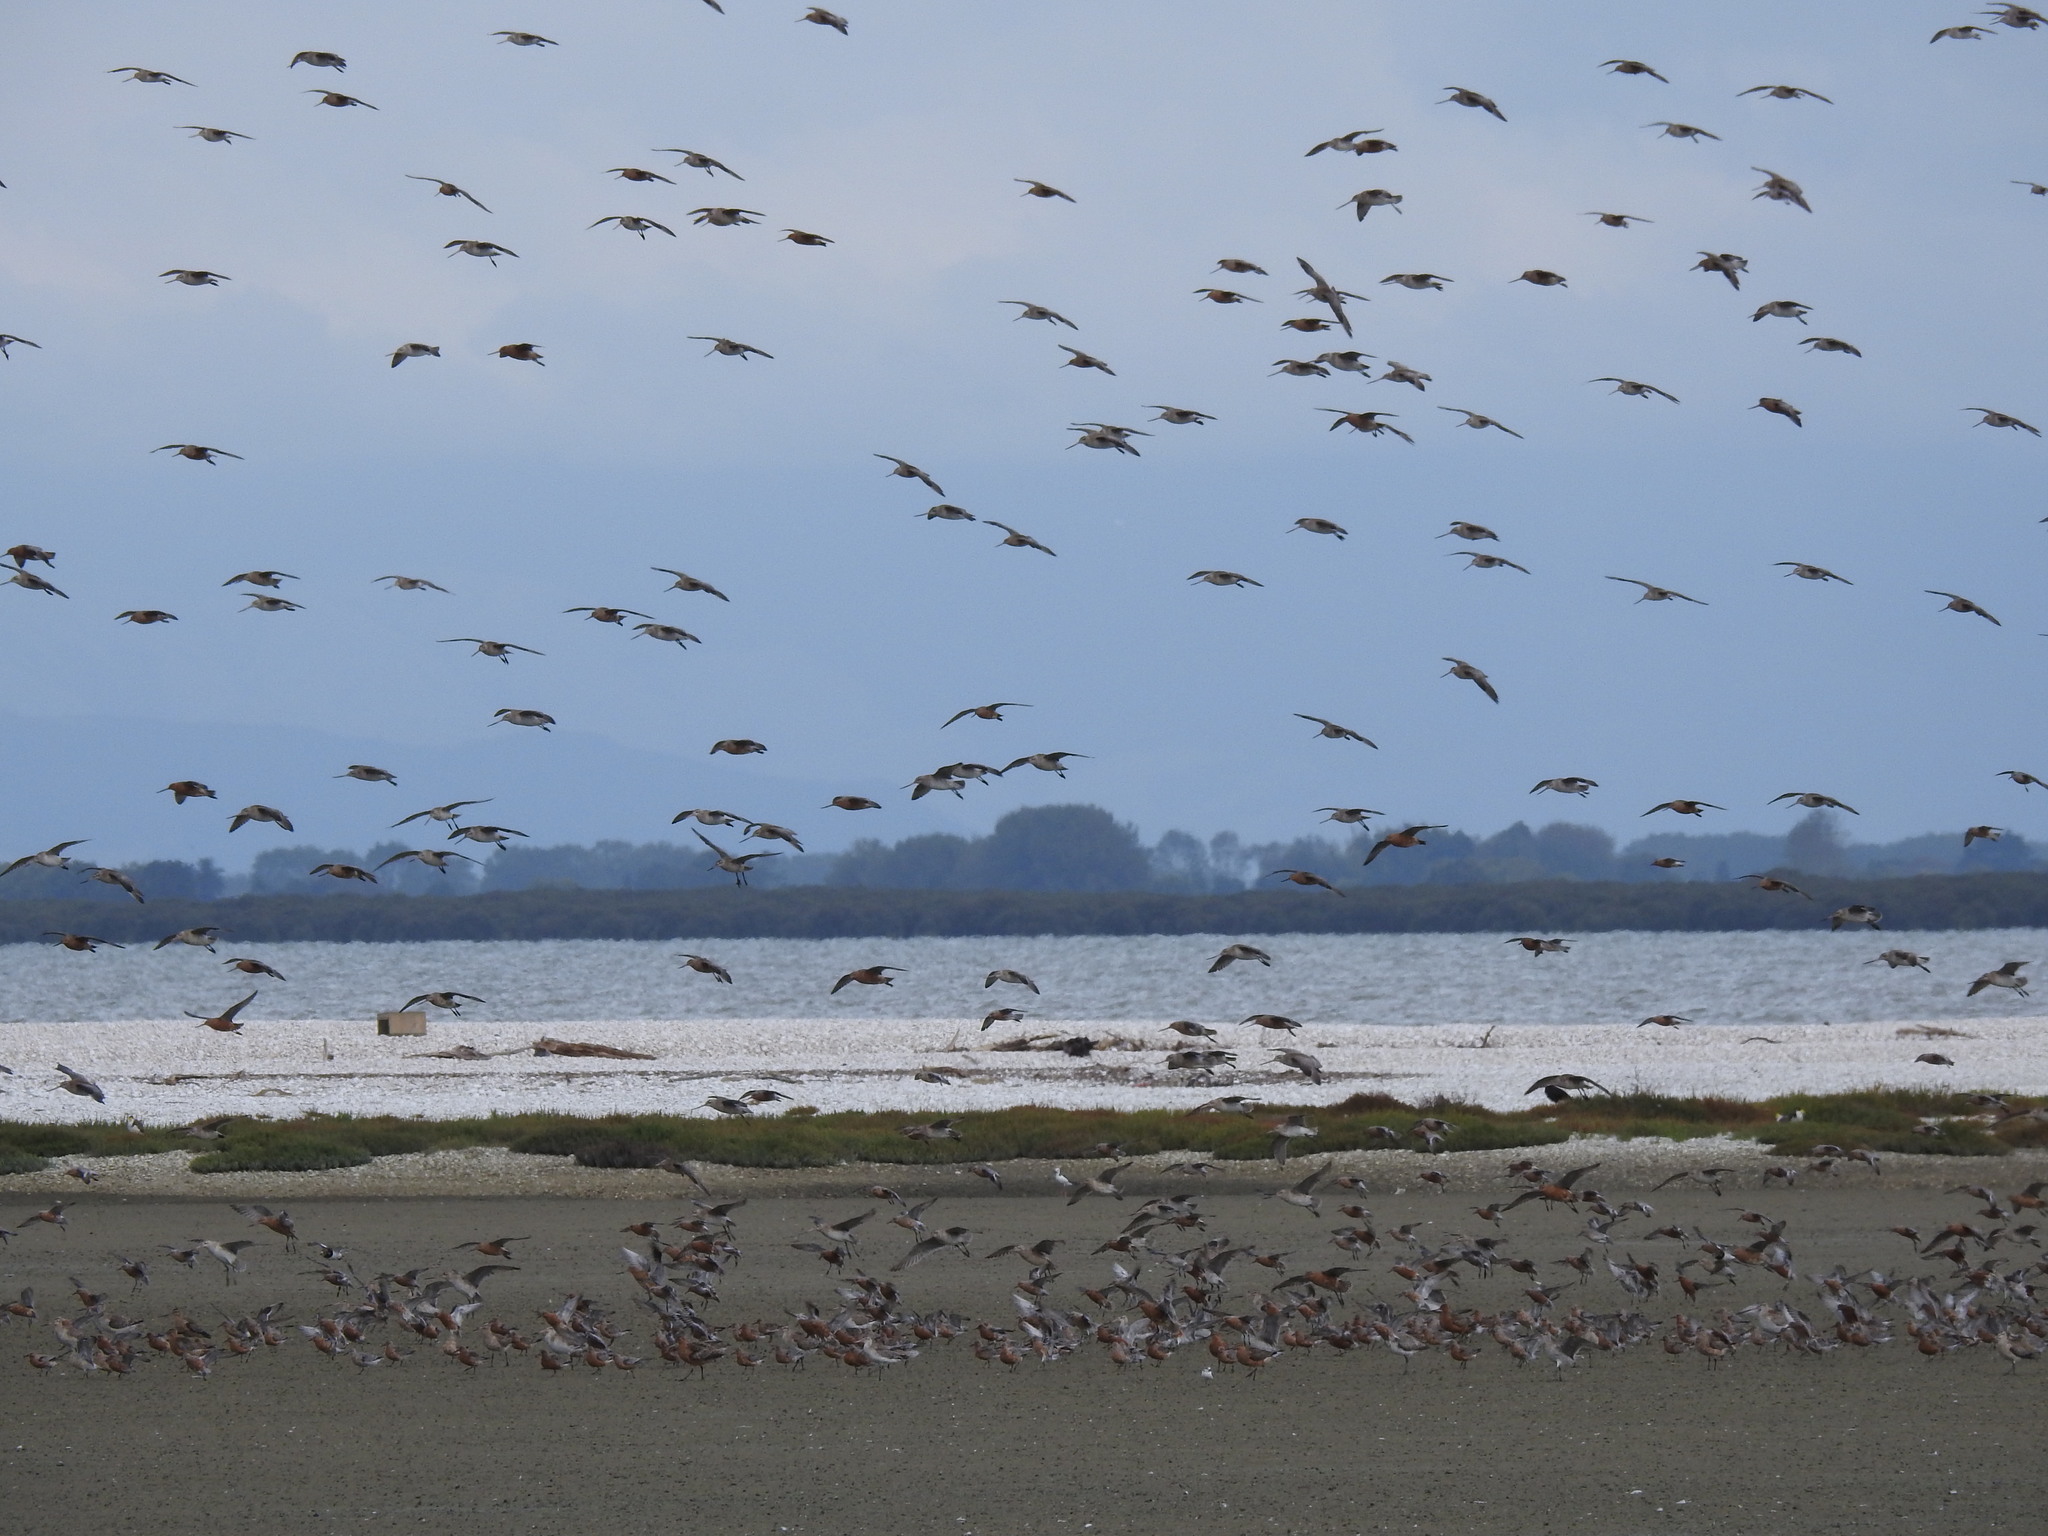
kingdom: Animalia
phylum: Chordata
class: Aves
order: Charadriiformes
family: Scolopacidae
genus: Limosa
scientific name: Limosa lapponica
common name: Bar-tailed godwit
